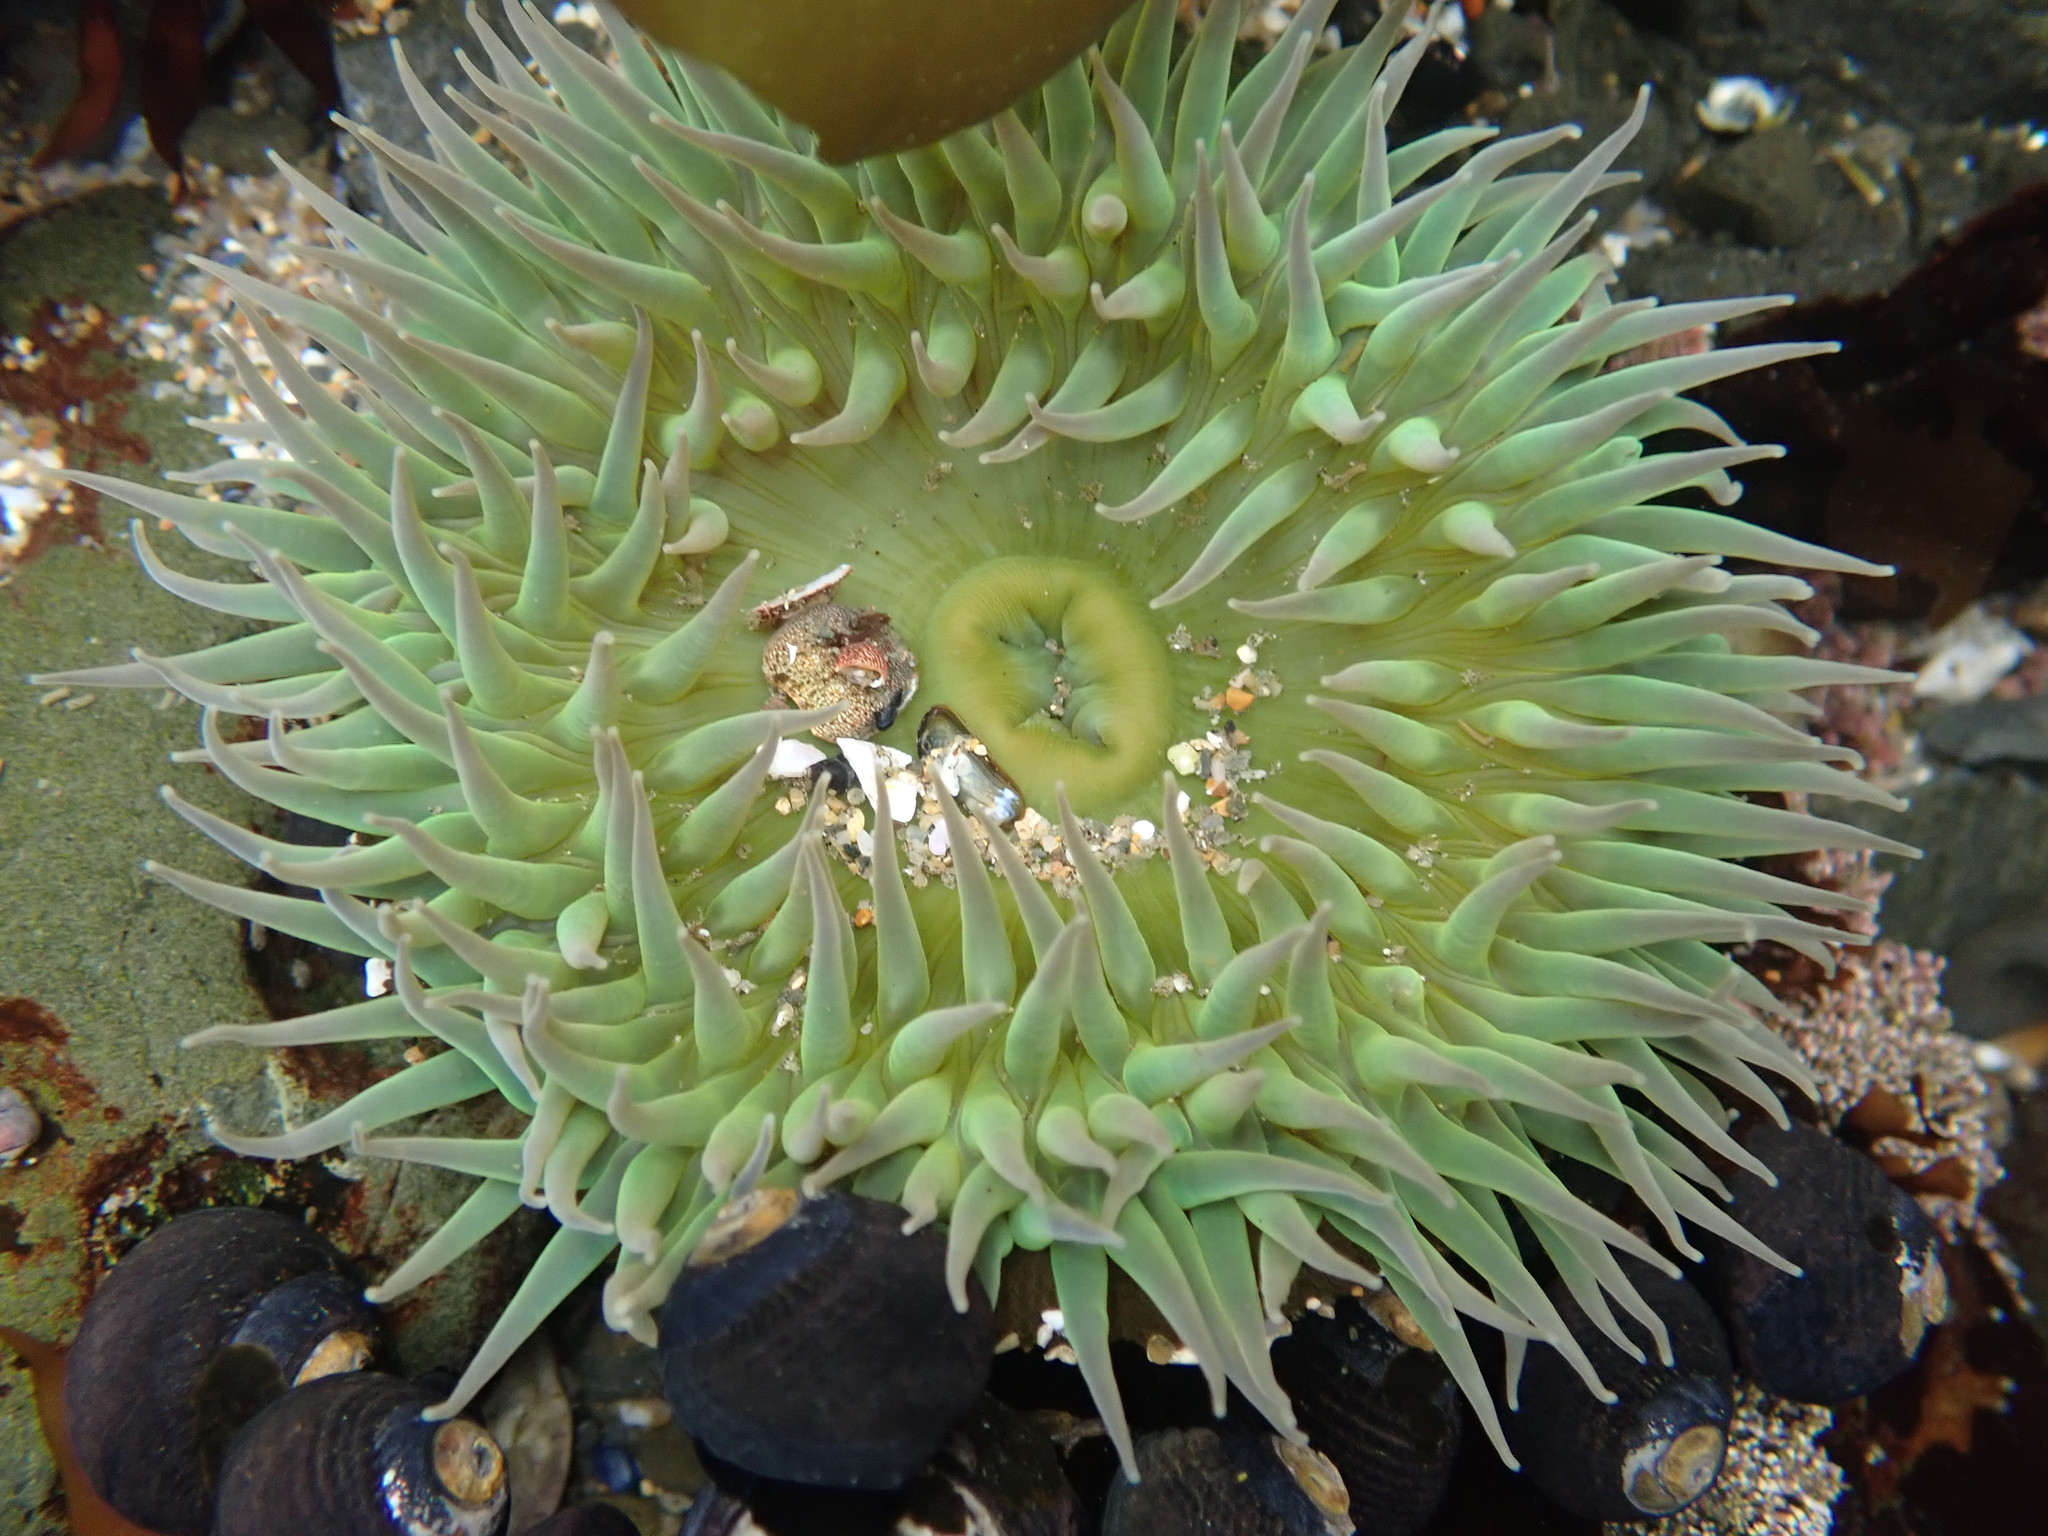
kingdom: Animalia
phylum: Cnidaria
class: Anthozoa
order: Actiniaria
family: Actiniidae
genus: Anthopleura
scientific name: Anthopleura xanthogrammica
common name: Giant green anemone
